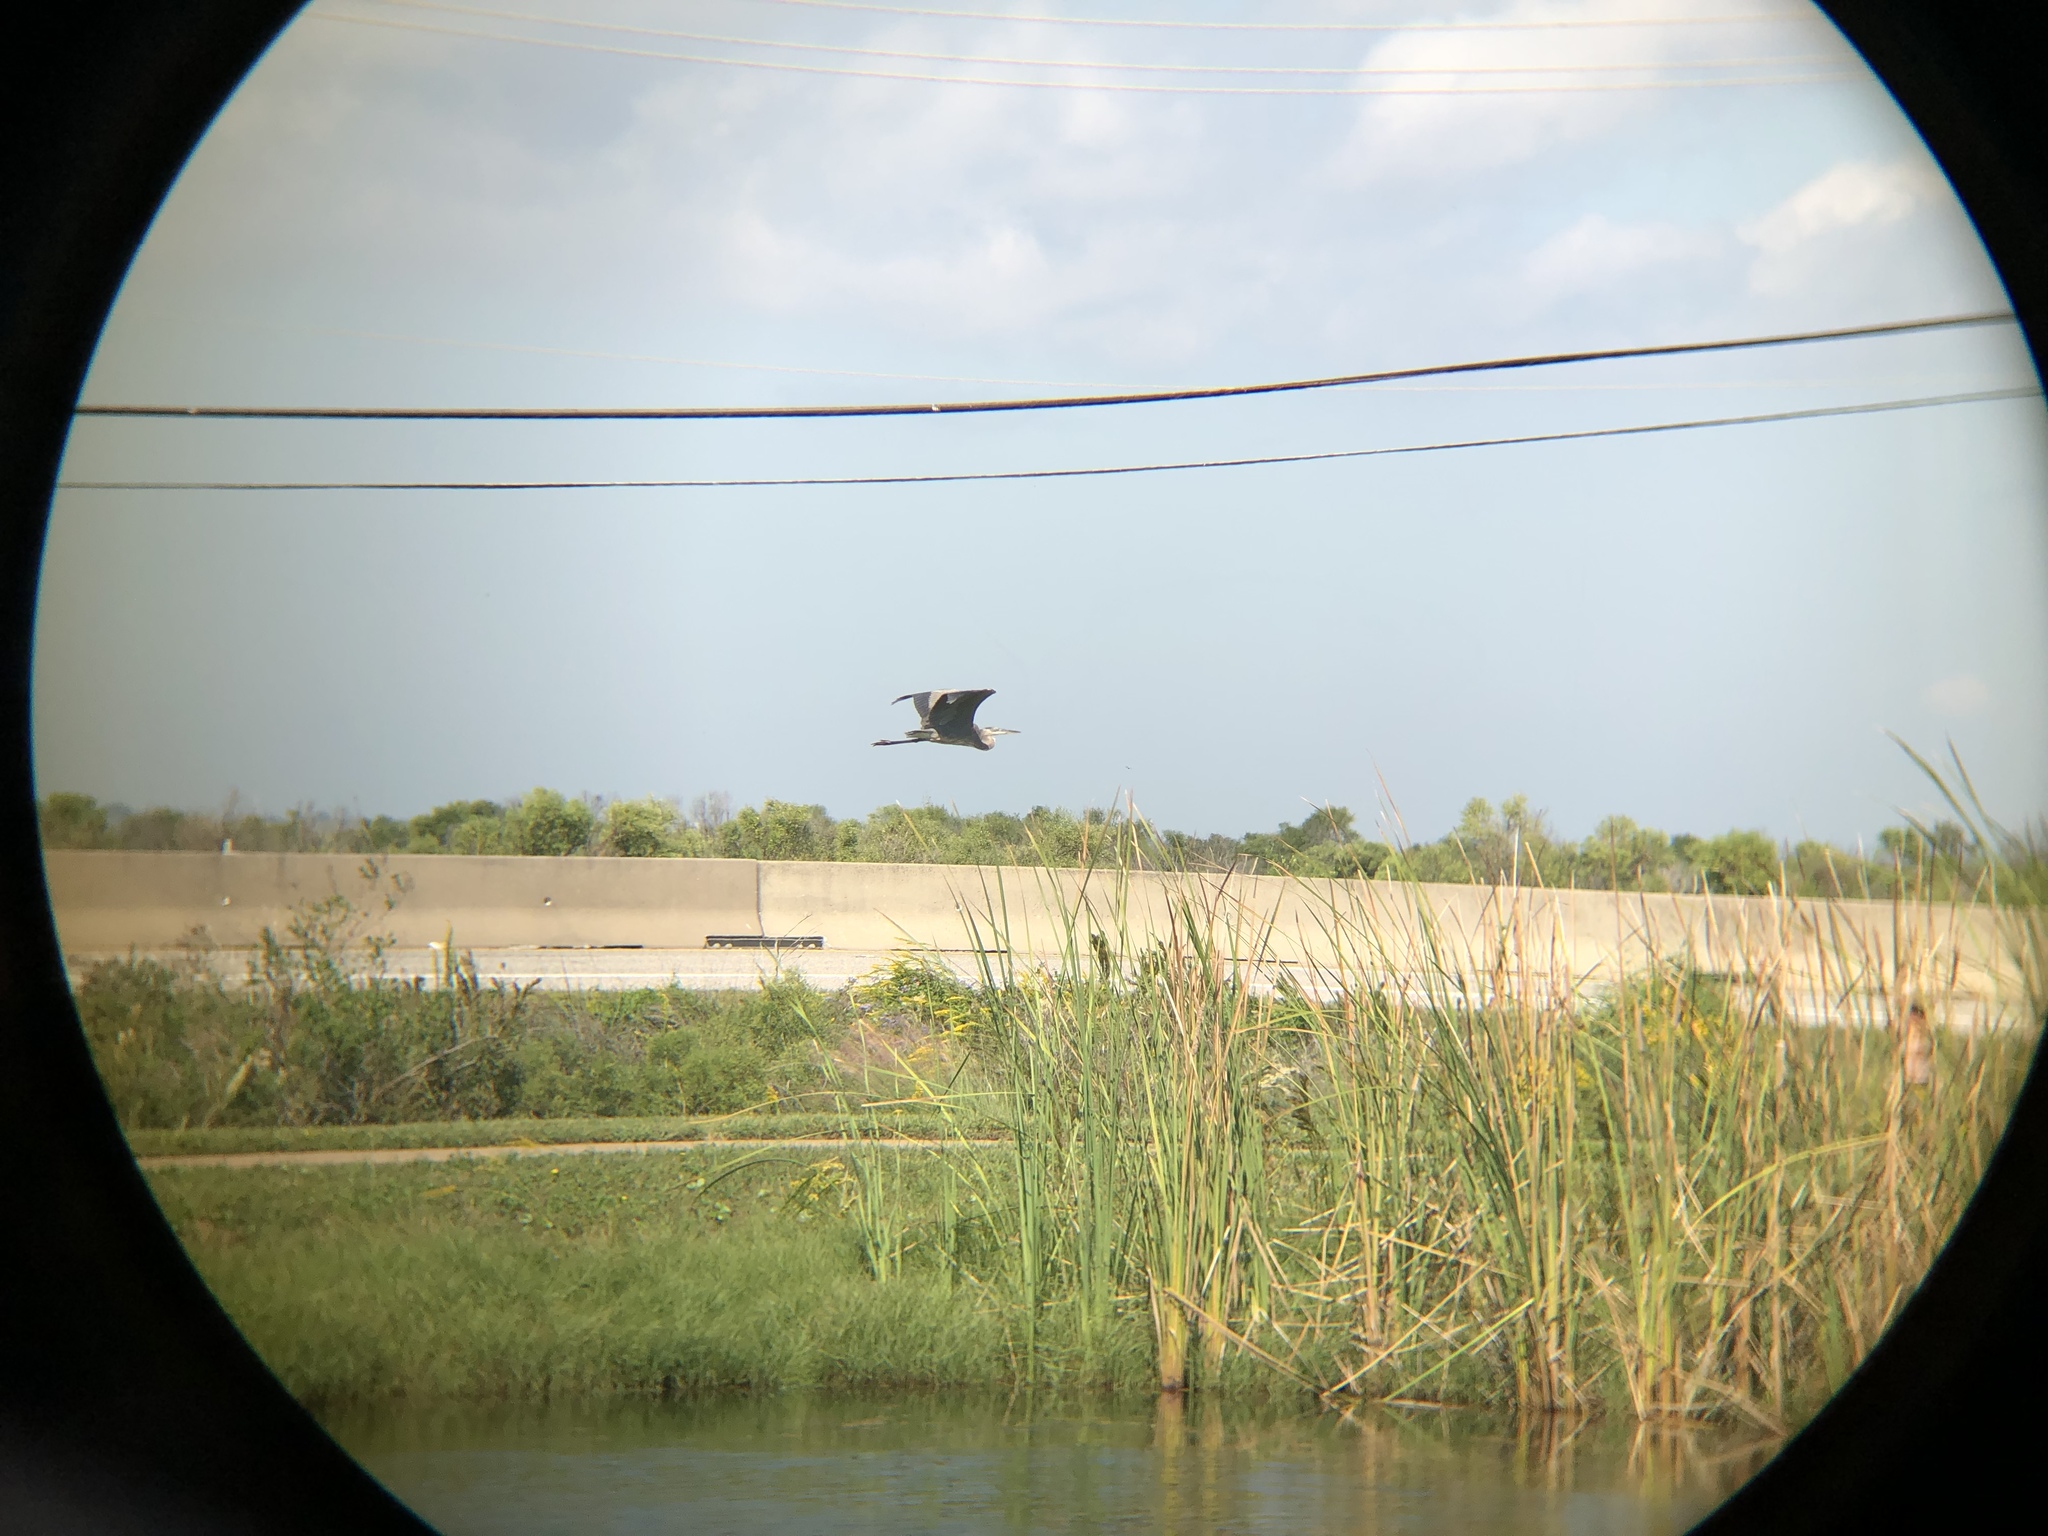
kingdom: Animalia
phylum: Chordata
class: Aves
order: Pelecaniformes
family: Ardeidae
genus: Ardea
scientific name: Ardea herodias
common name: Great blue heron
